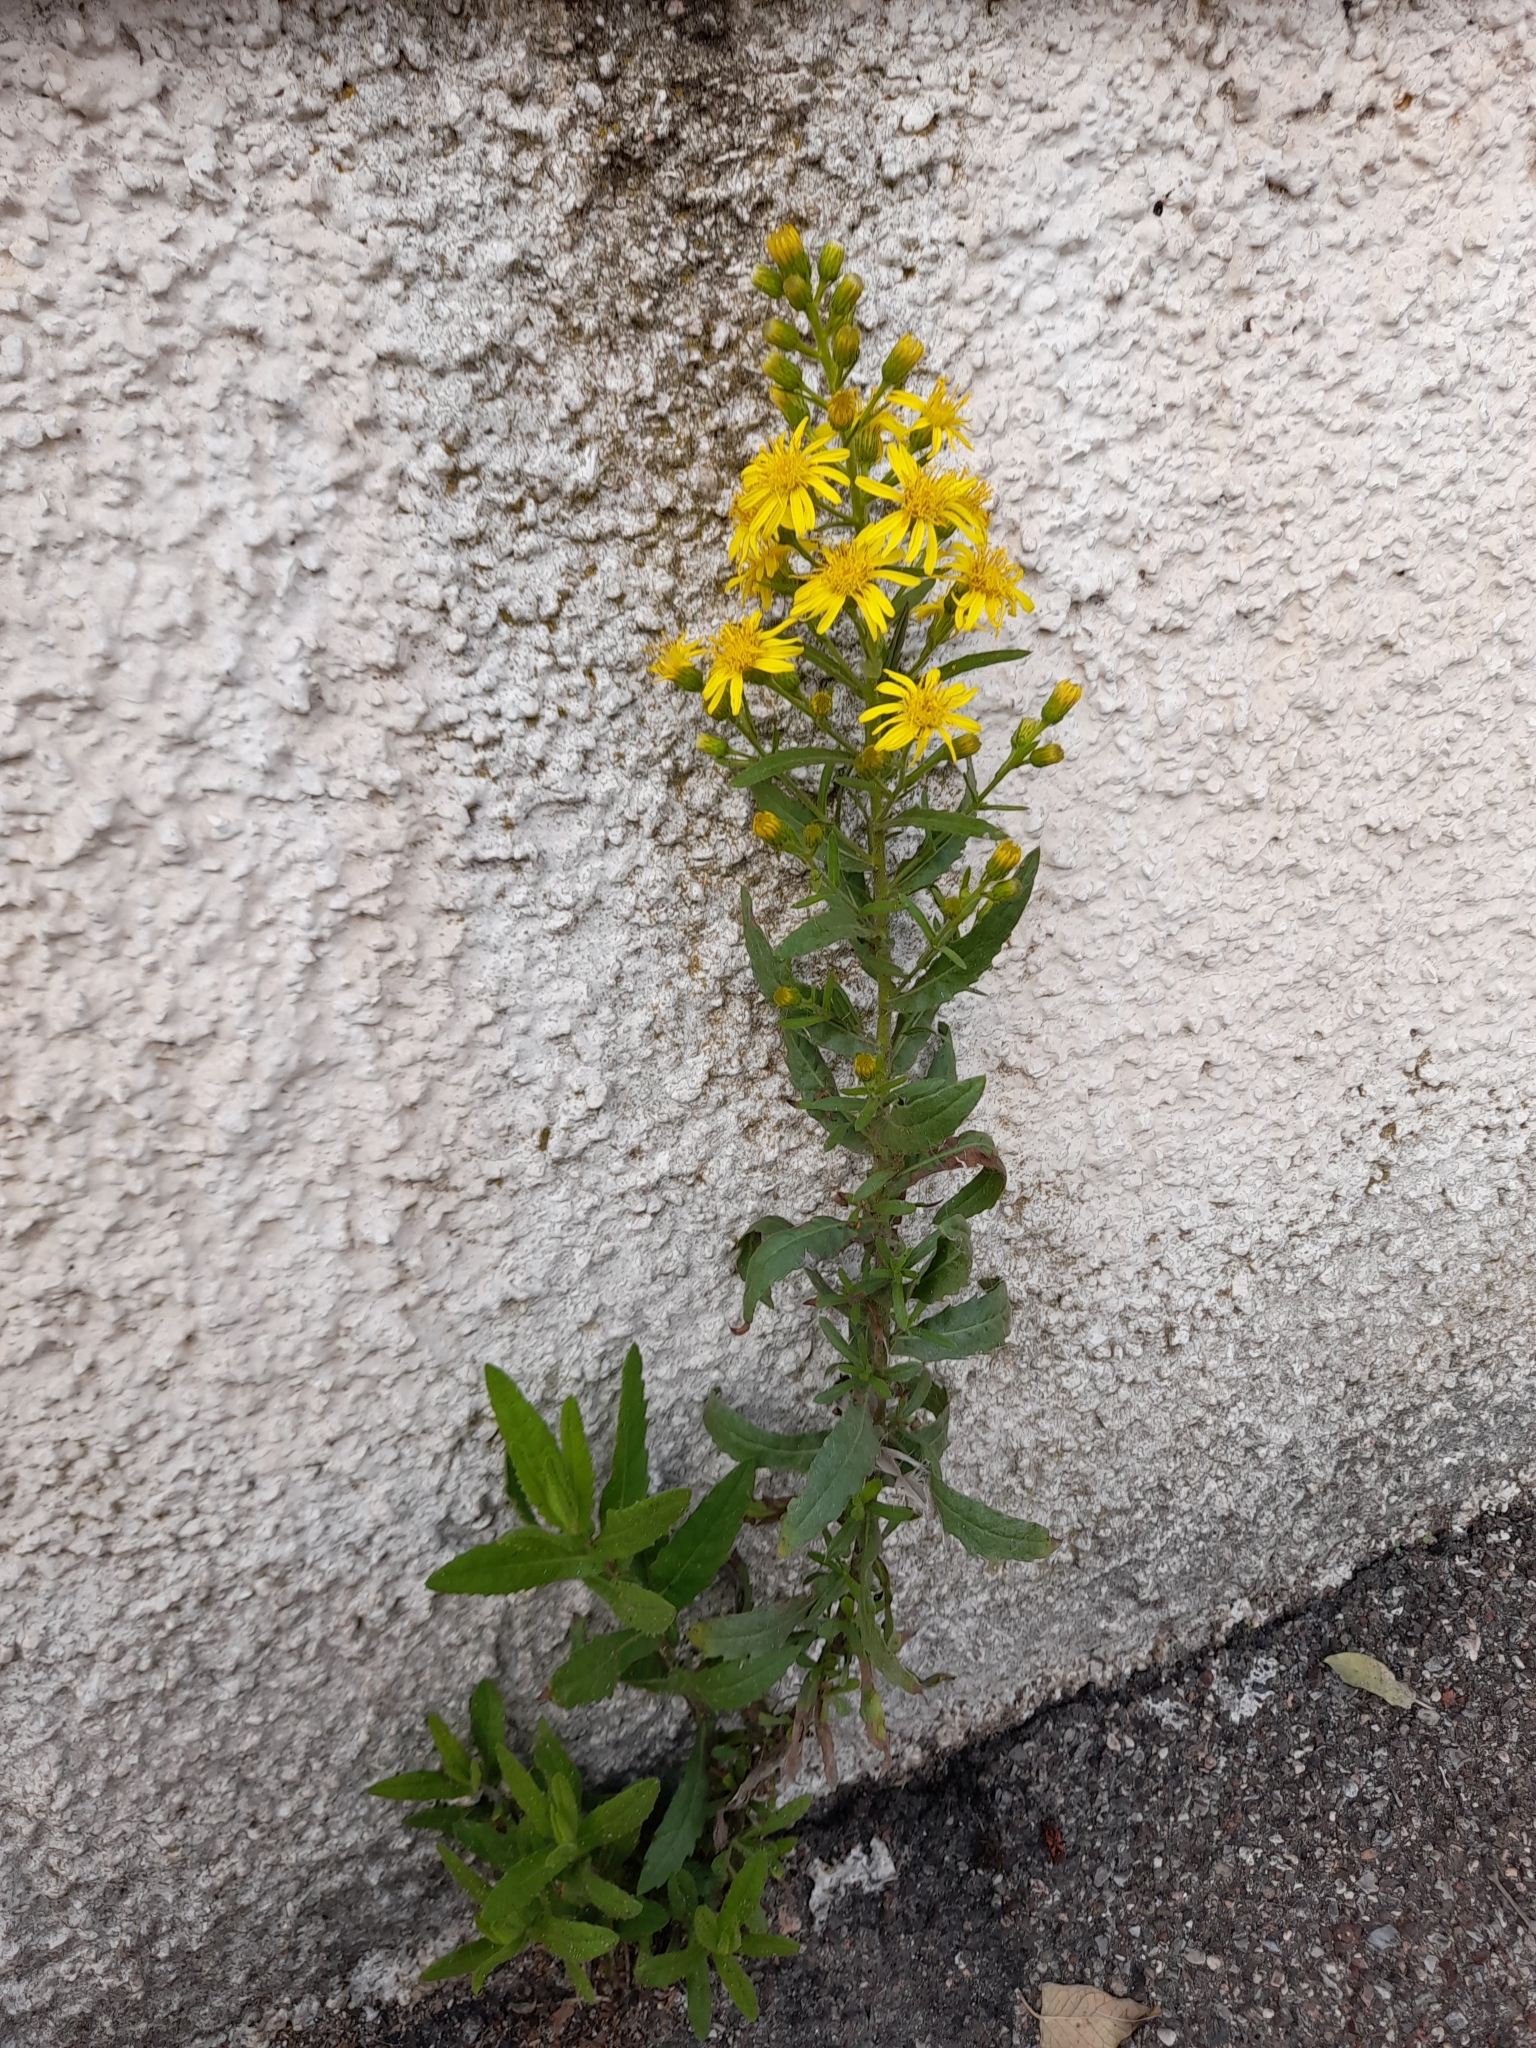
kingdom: Plantae
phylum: Tracheophyta
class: Magnoliopsida
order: Asterales
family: Asteraceae
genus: Dittrichia
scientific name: Dittrichia viscosa
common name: Woody fleabane
